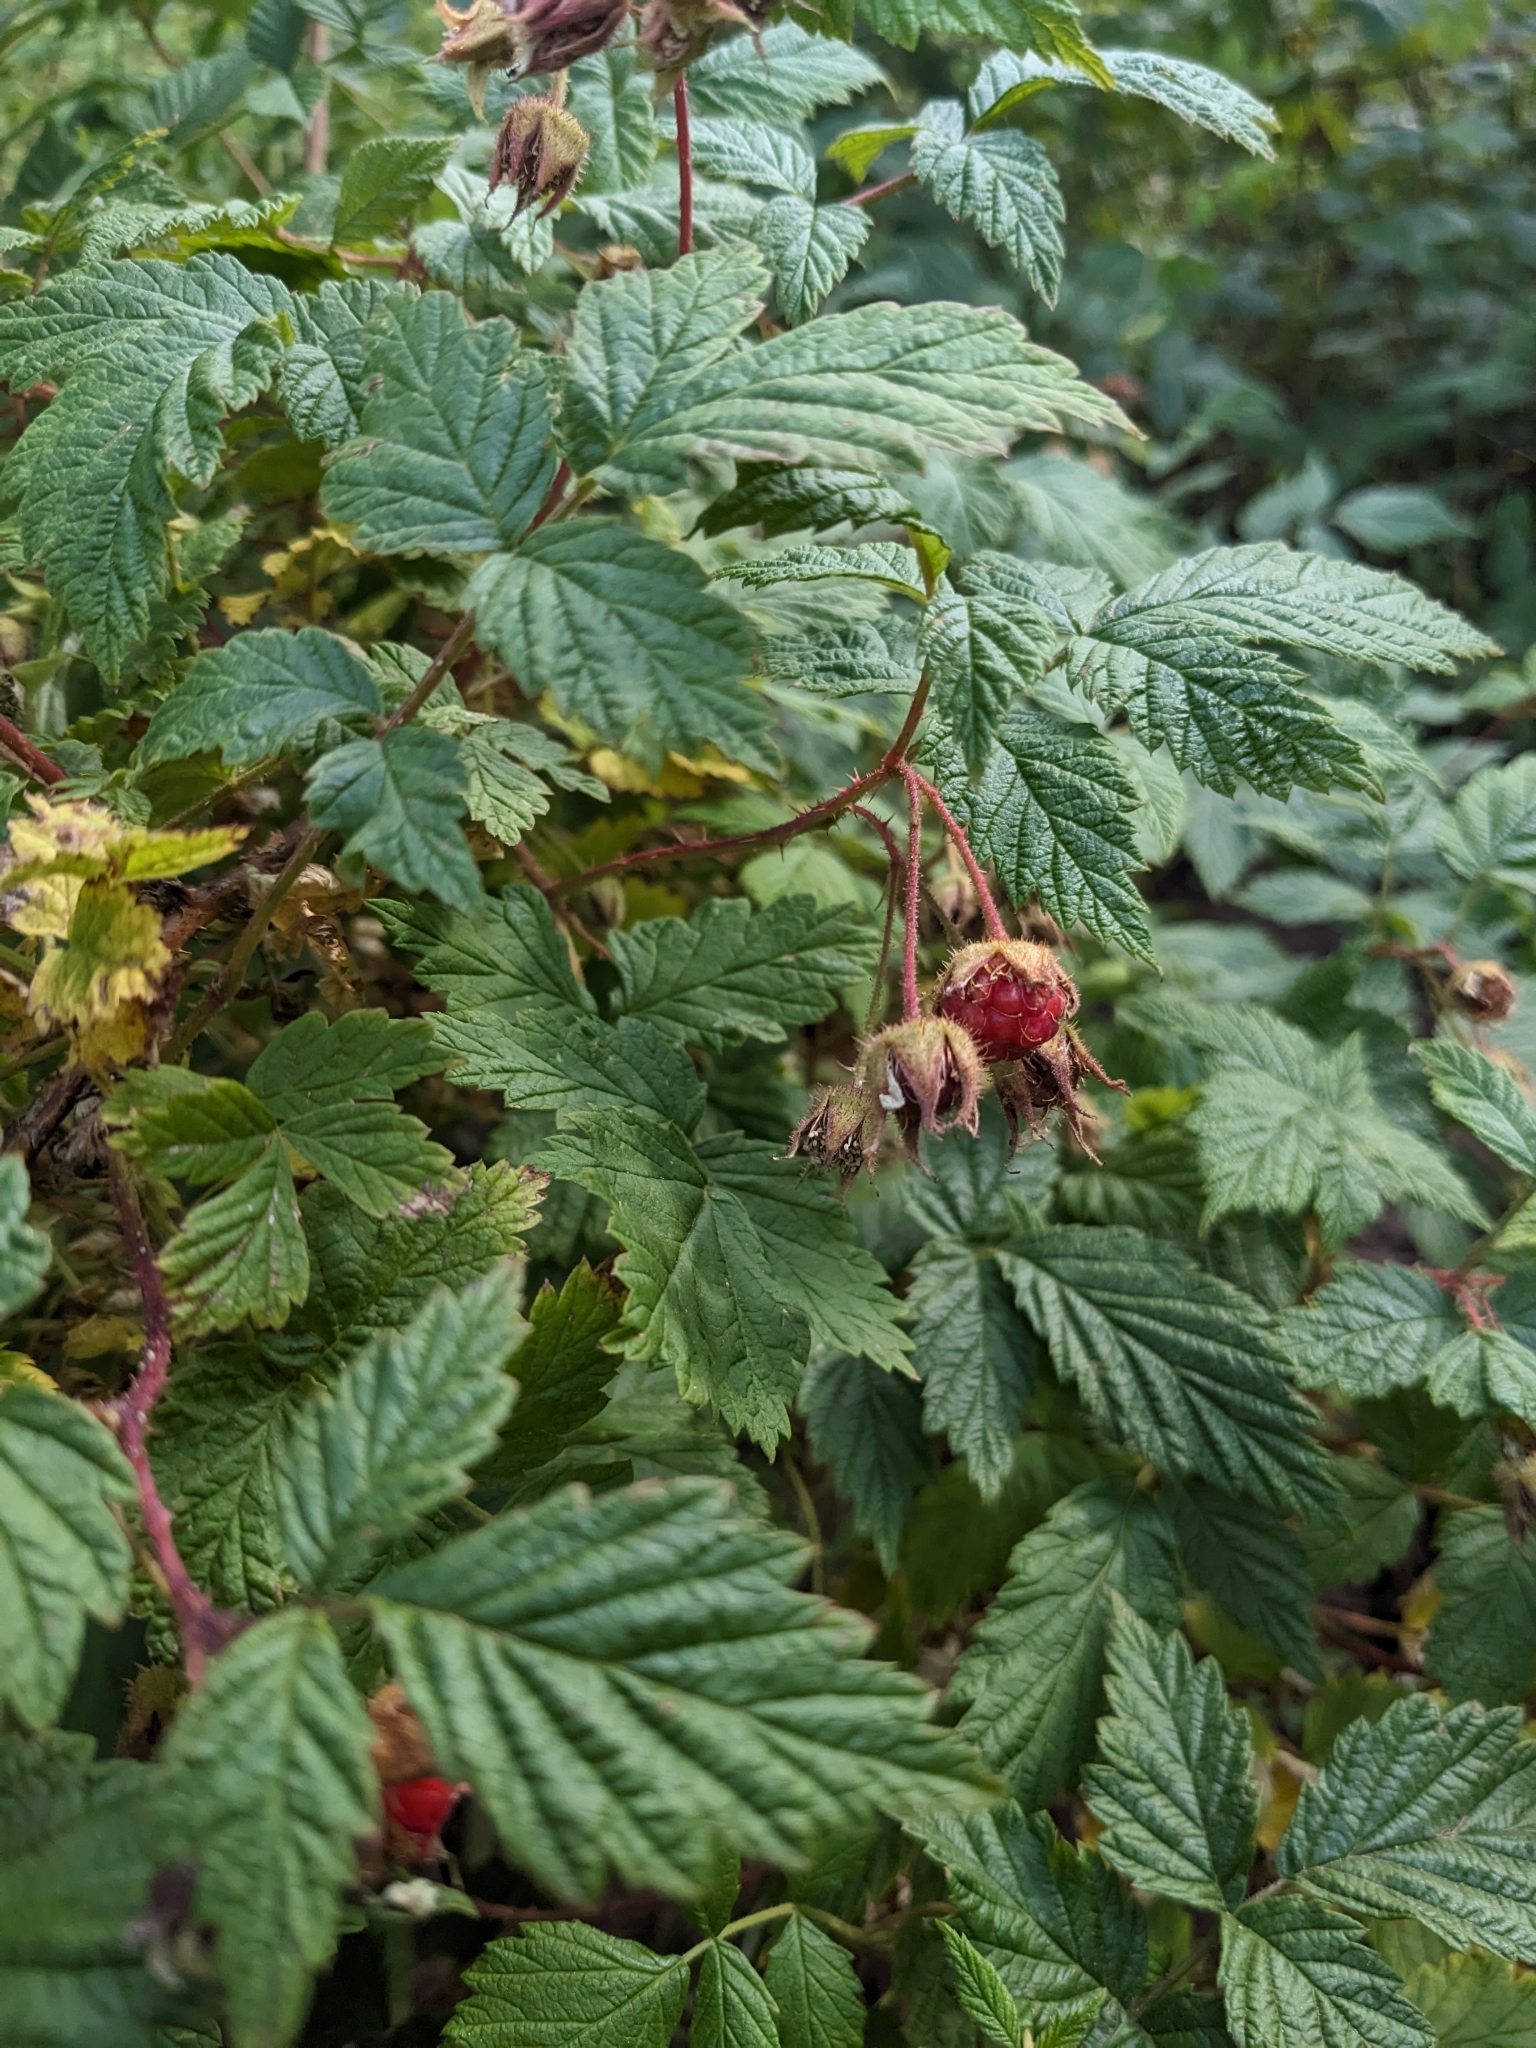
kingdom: Plantae
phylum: Tracheophyta
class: Magnoliopsida
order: Rosales
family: Rosaceae
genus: Rubus
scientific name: Rubus idaeus
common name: Raspberry
